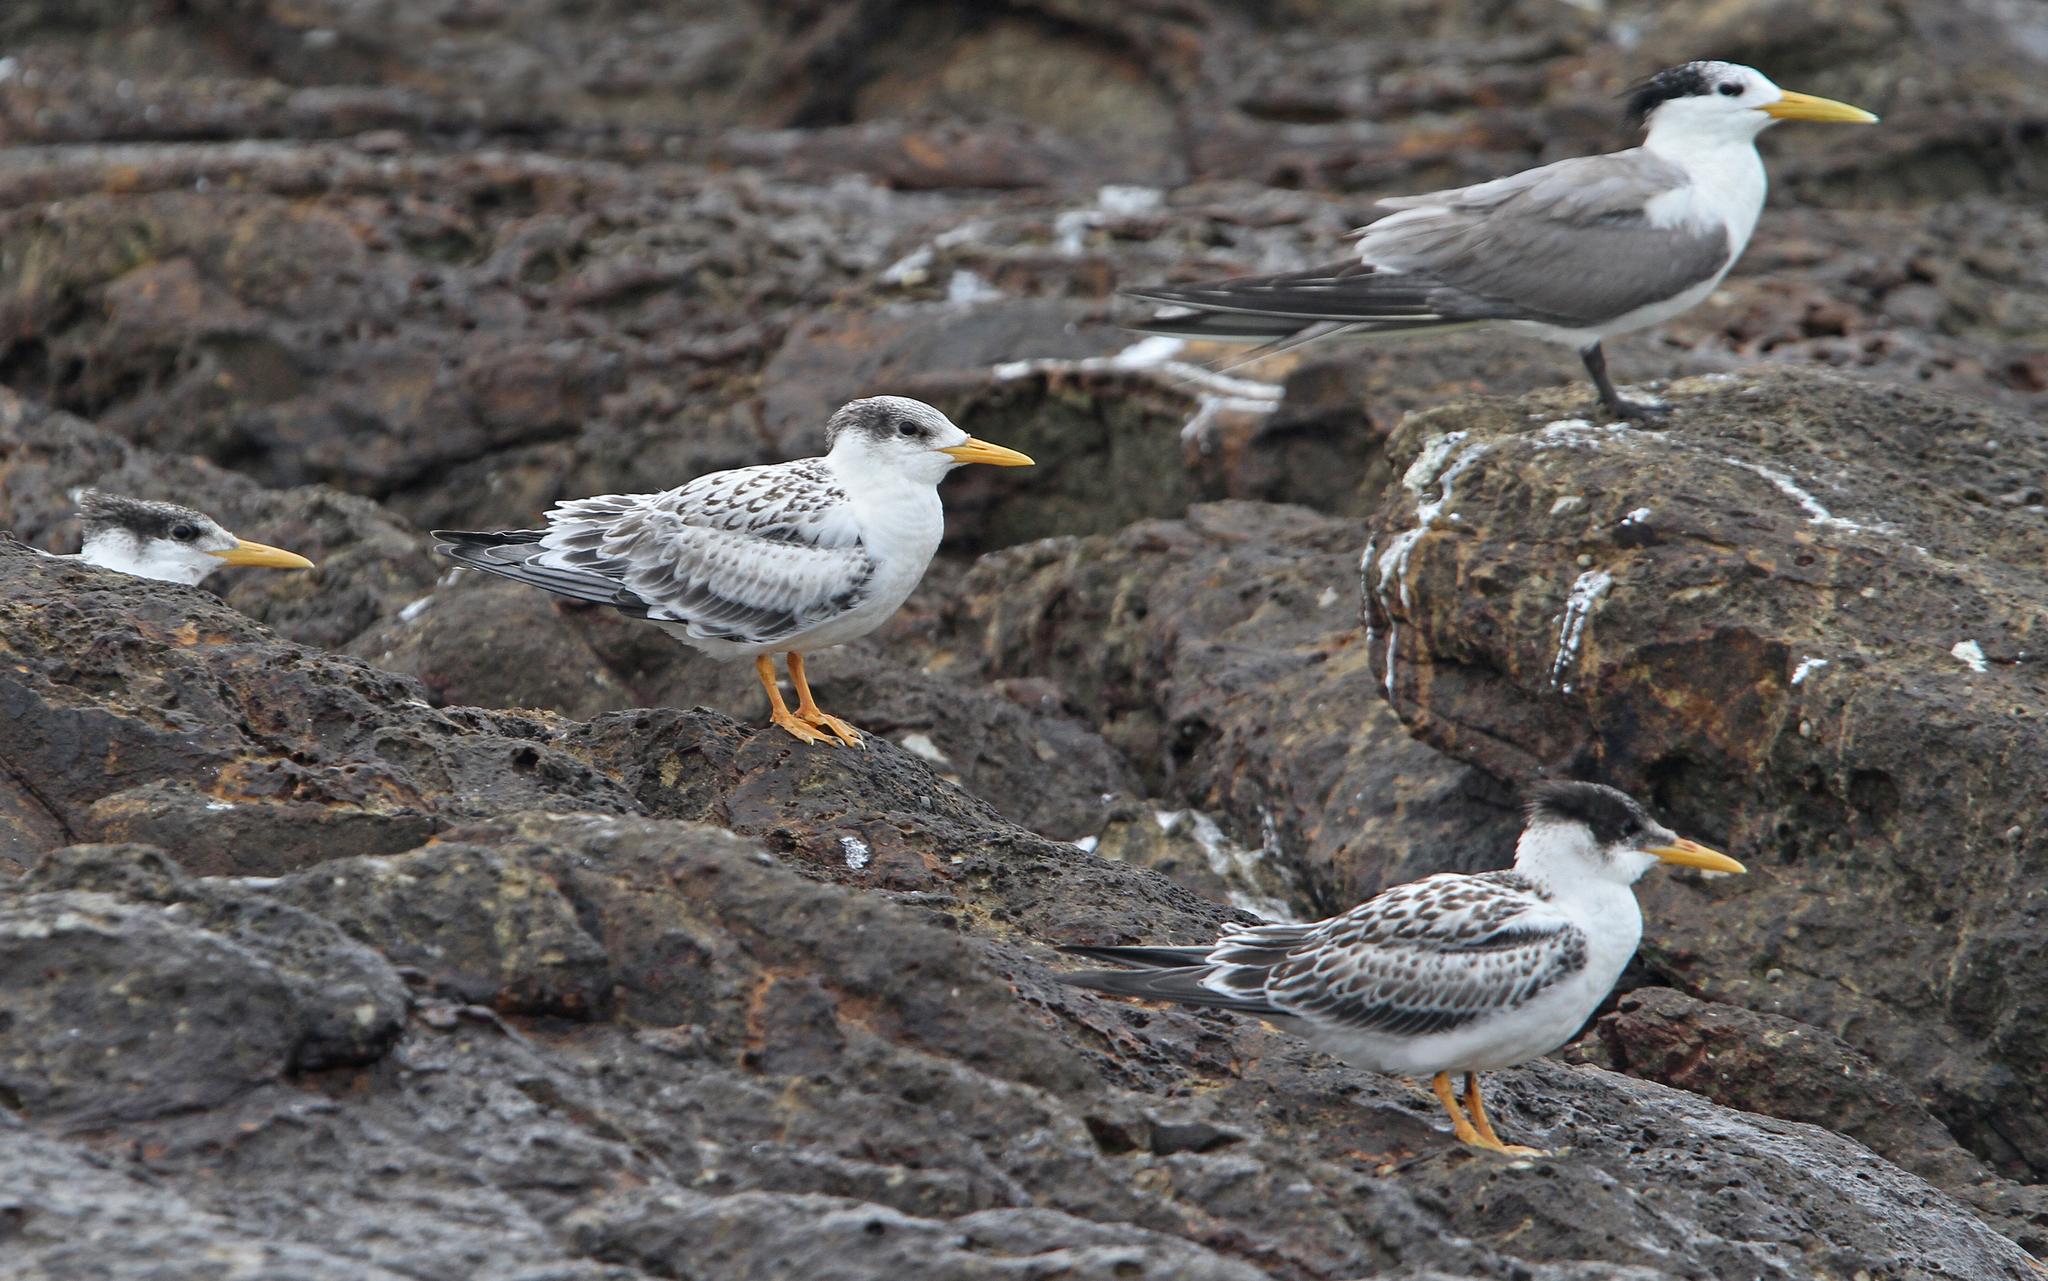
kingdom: Animalia
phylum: Chordata
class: Aves
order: Charadriiformes
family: Laridae
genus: Thalasseus
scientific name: Thalasseus bergii
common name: Greater crested tern
